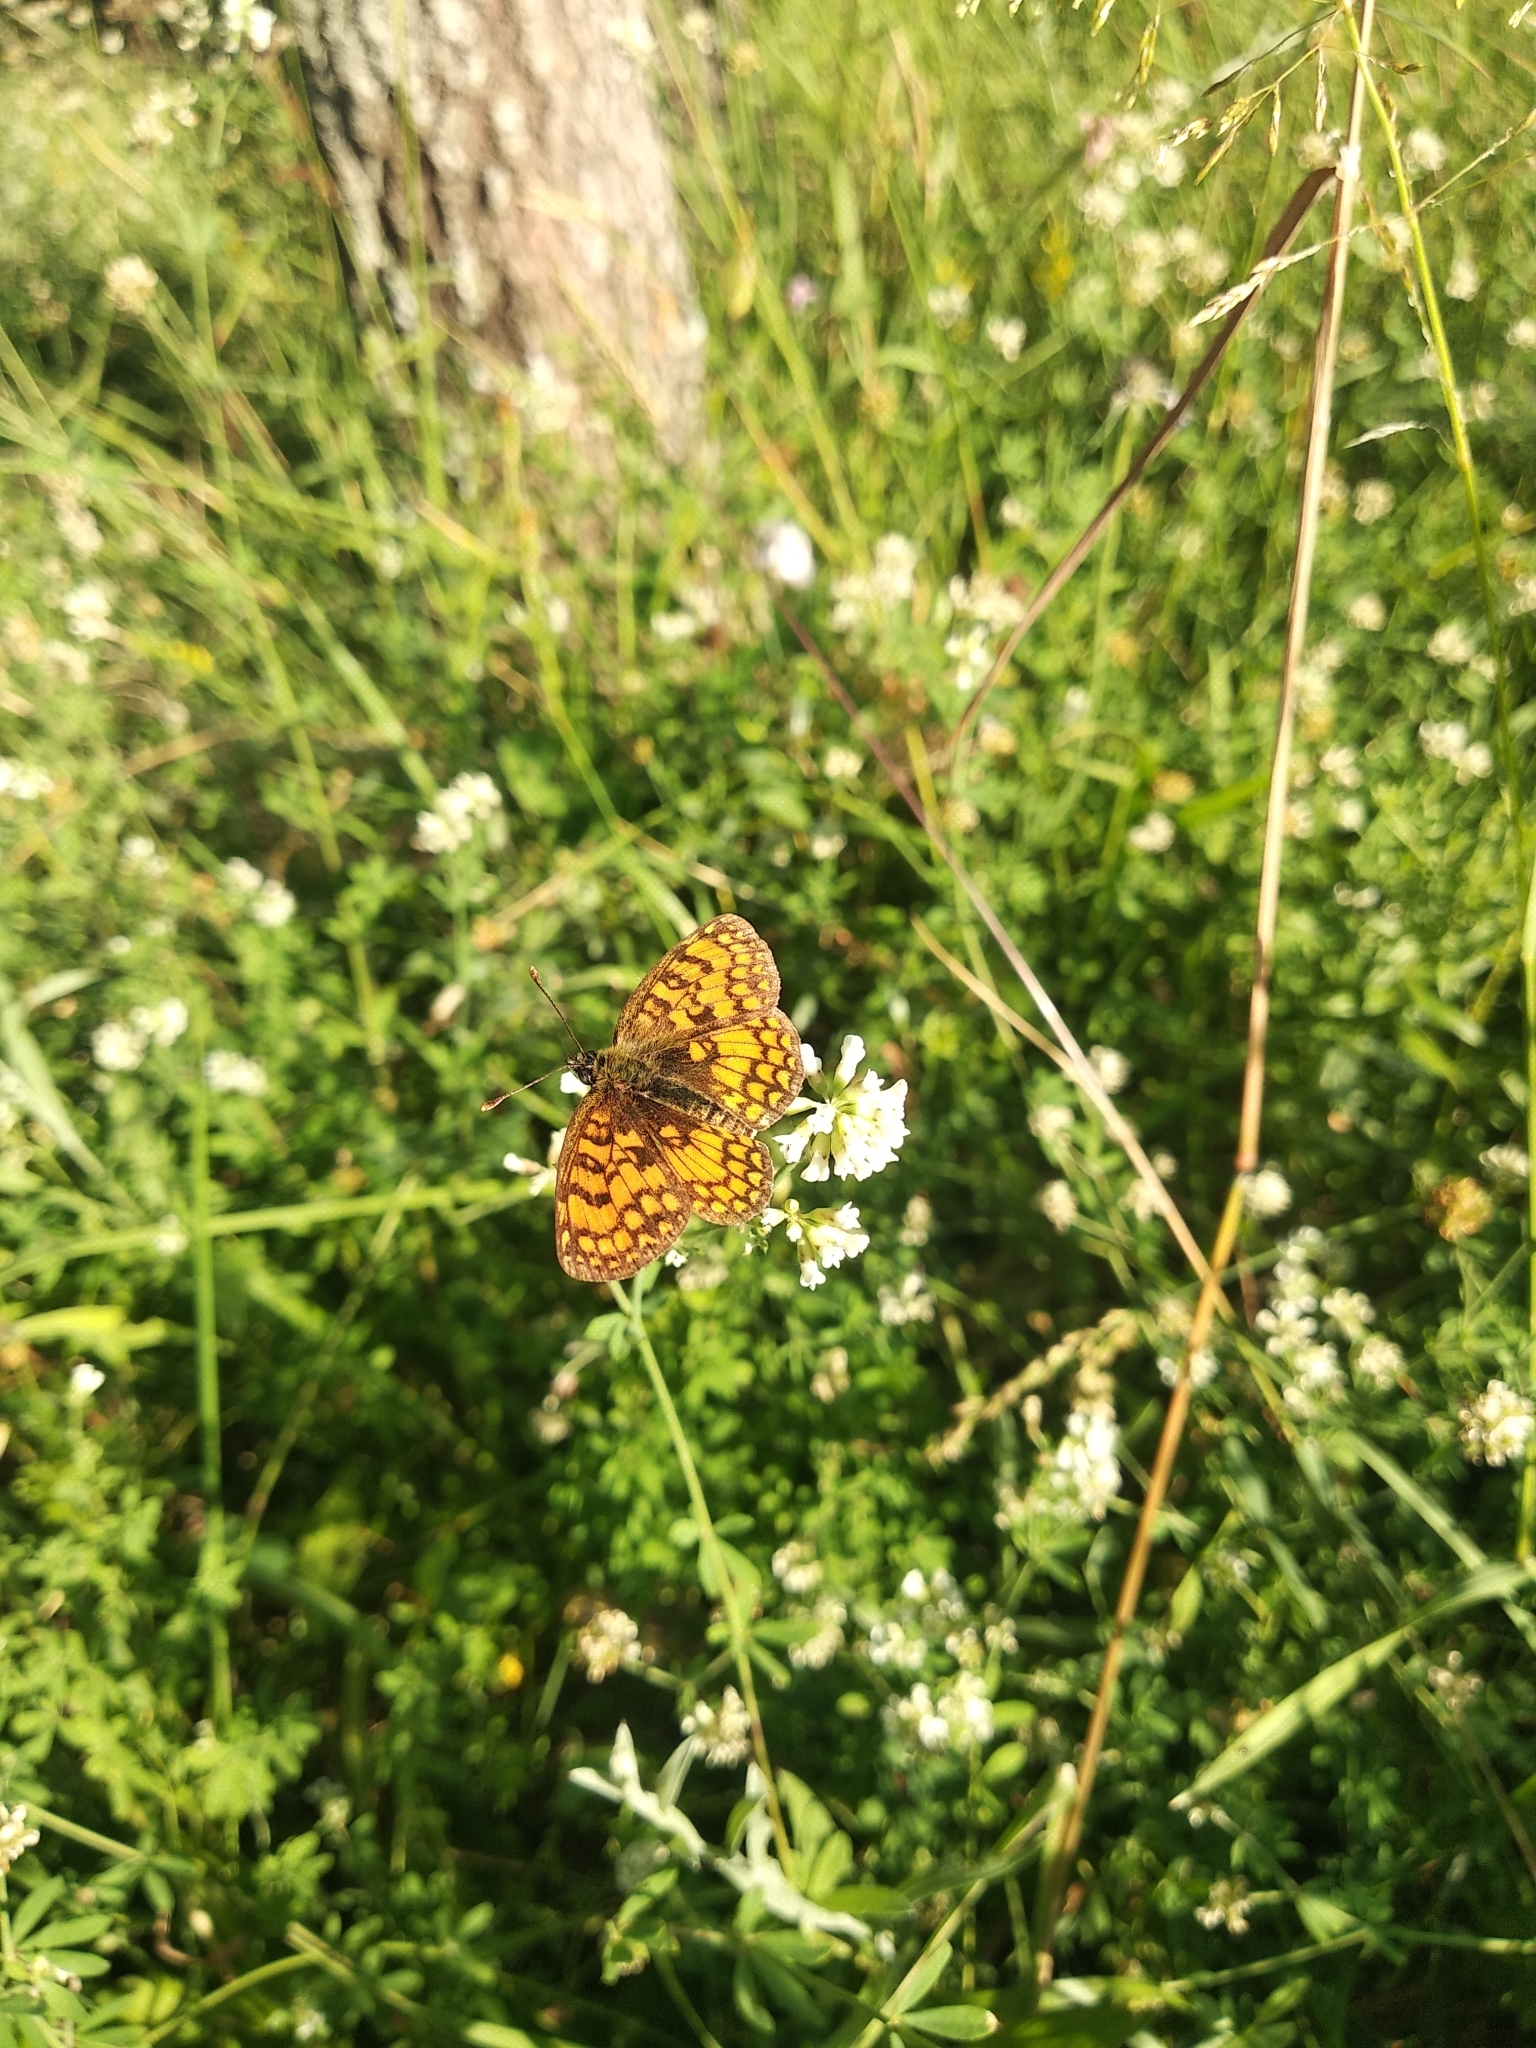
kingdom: Animalia
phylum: Arthropoda
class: Insecta
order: Lepidoptera
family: Nymphalidae
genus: Mellicta
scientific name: Mellicta athalia
